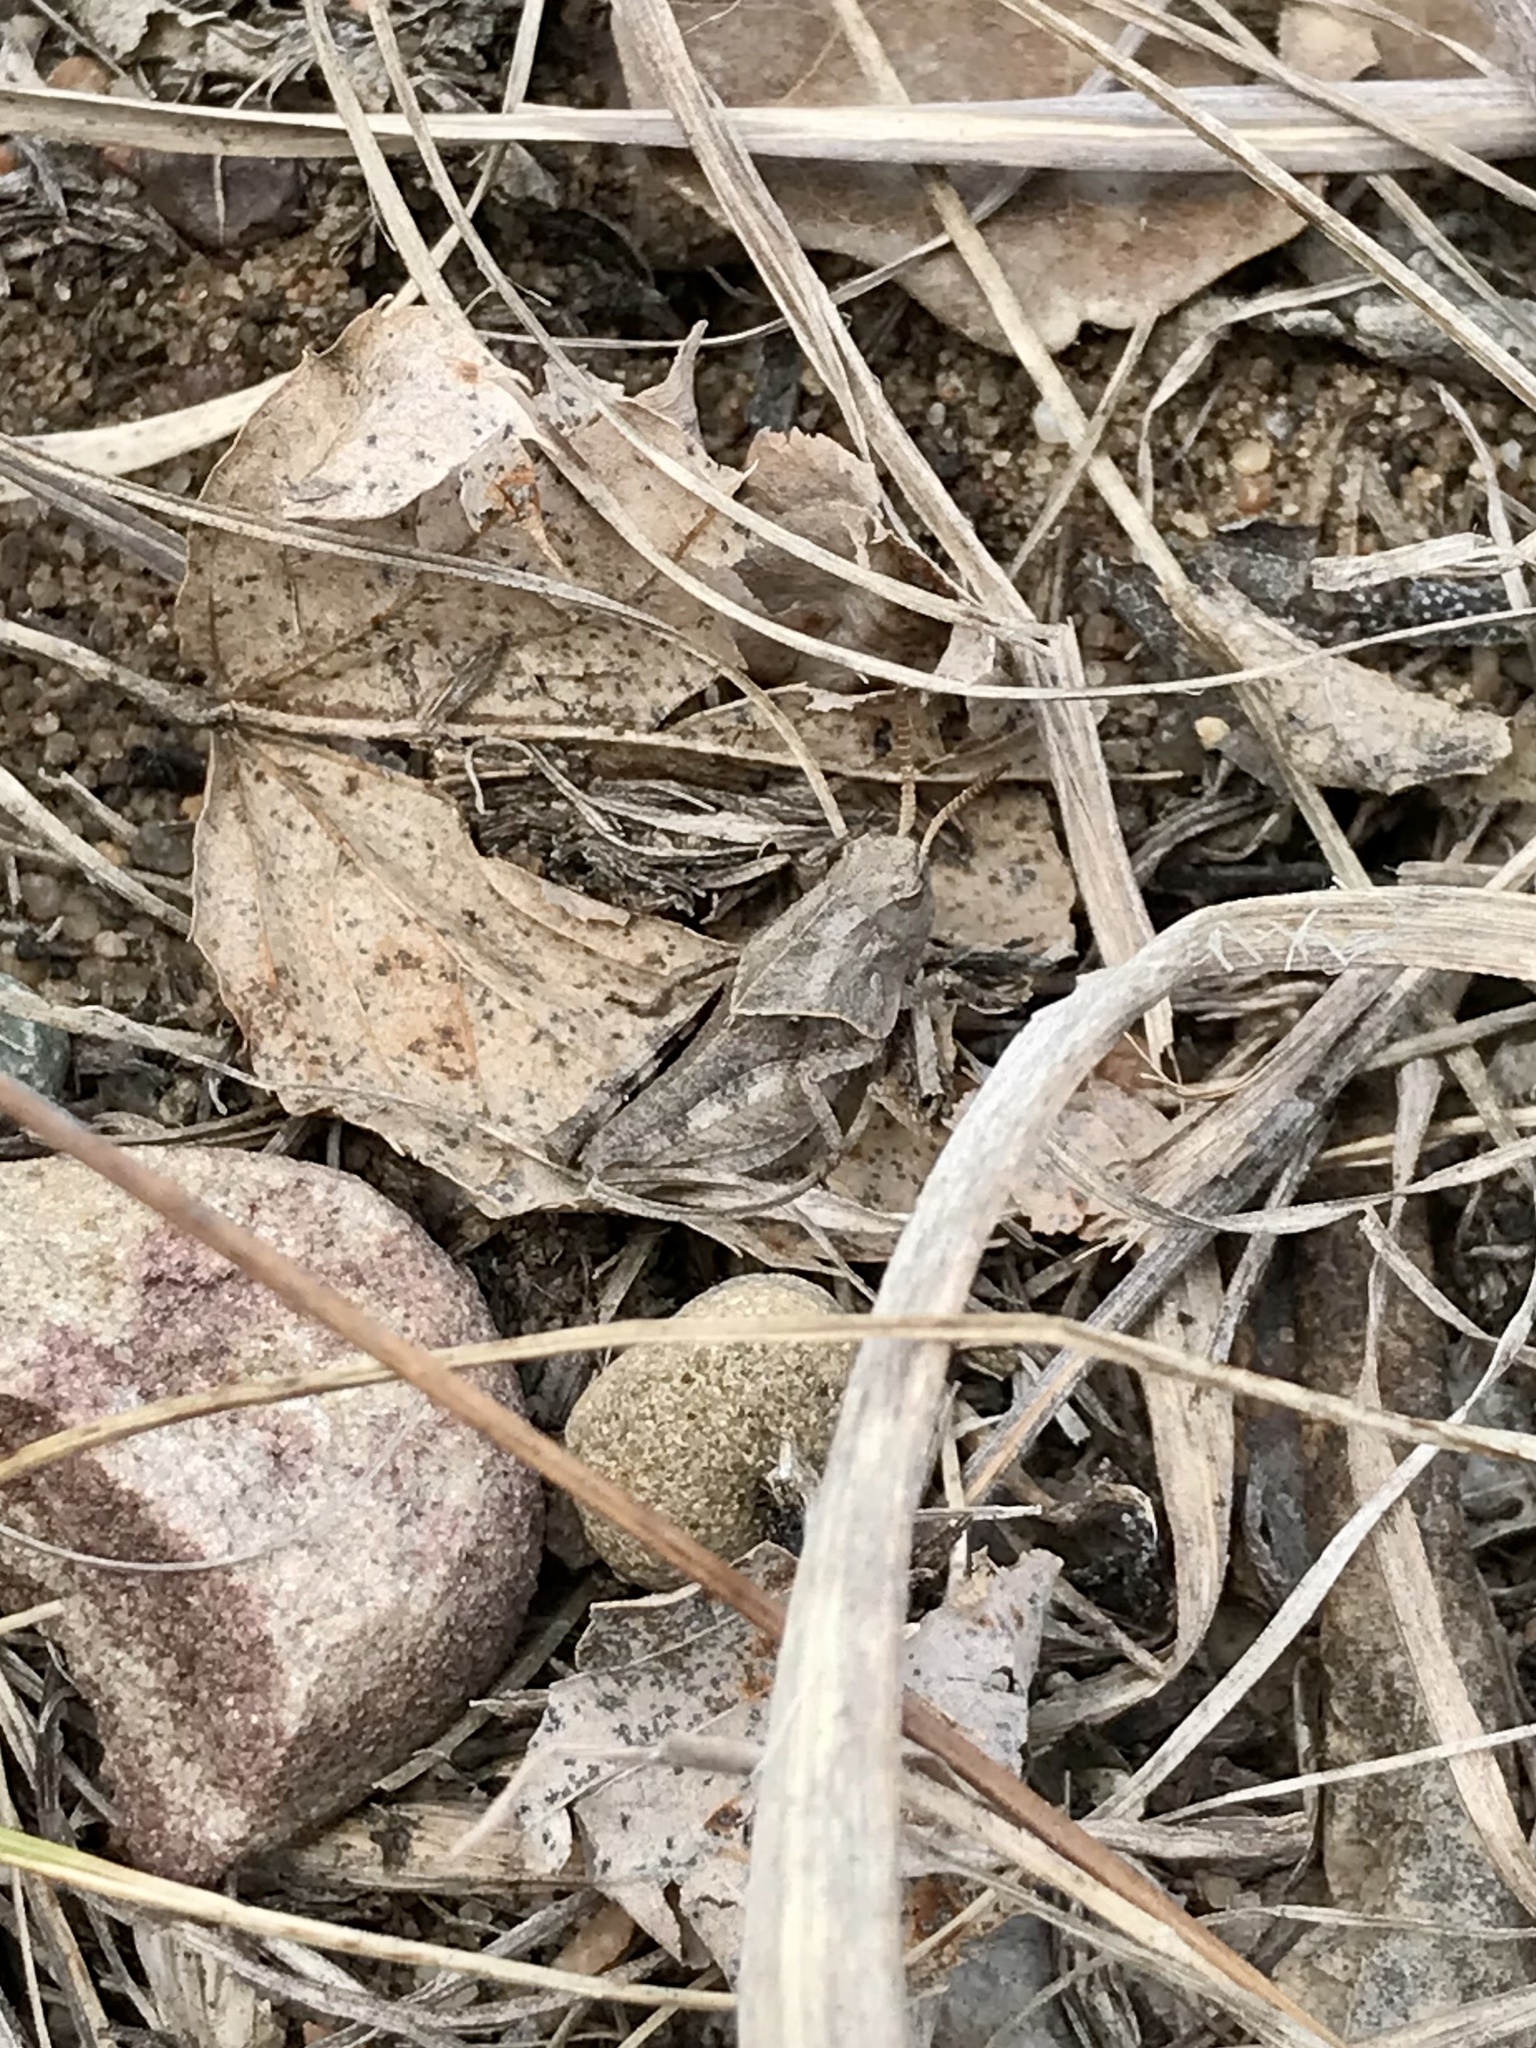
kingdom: Animalia
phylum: Arthropoda
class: Insecta
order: Orthoptera
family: Acrididae
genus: Pardalophora
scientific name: Pardalophora apiculata
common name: Coral-winged locust
